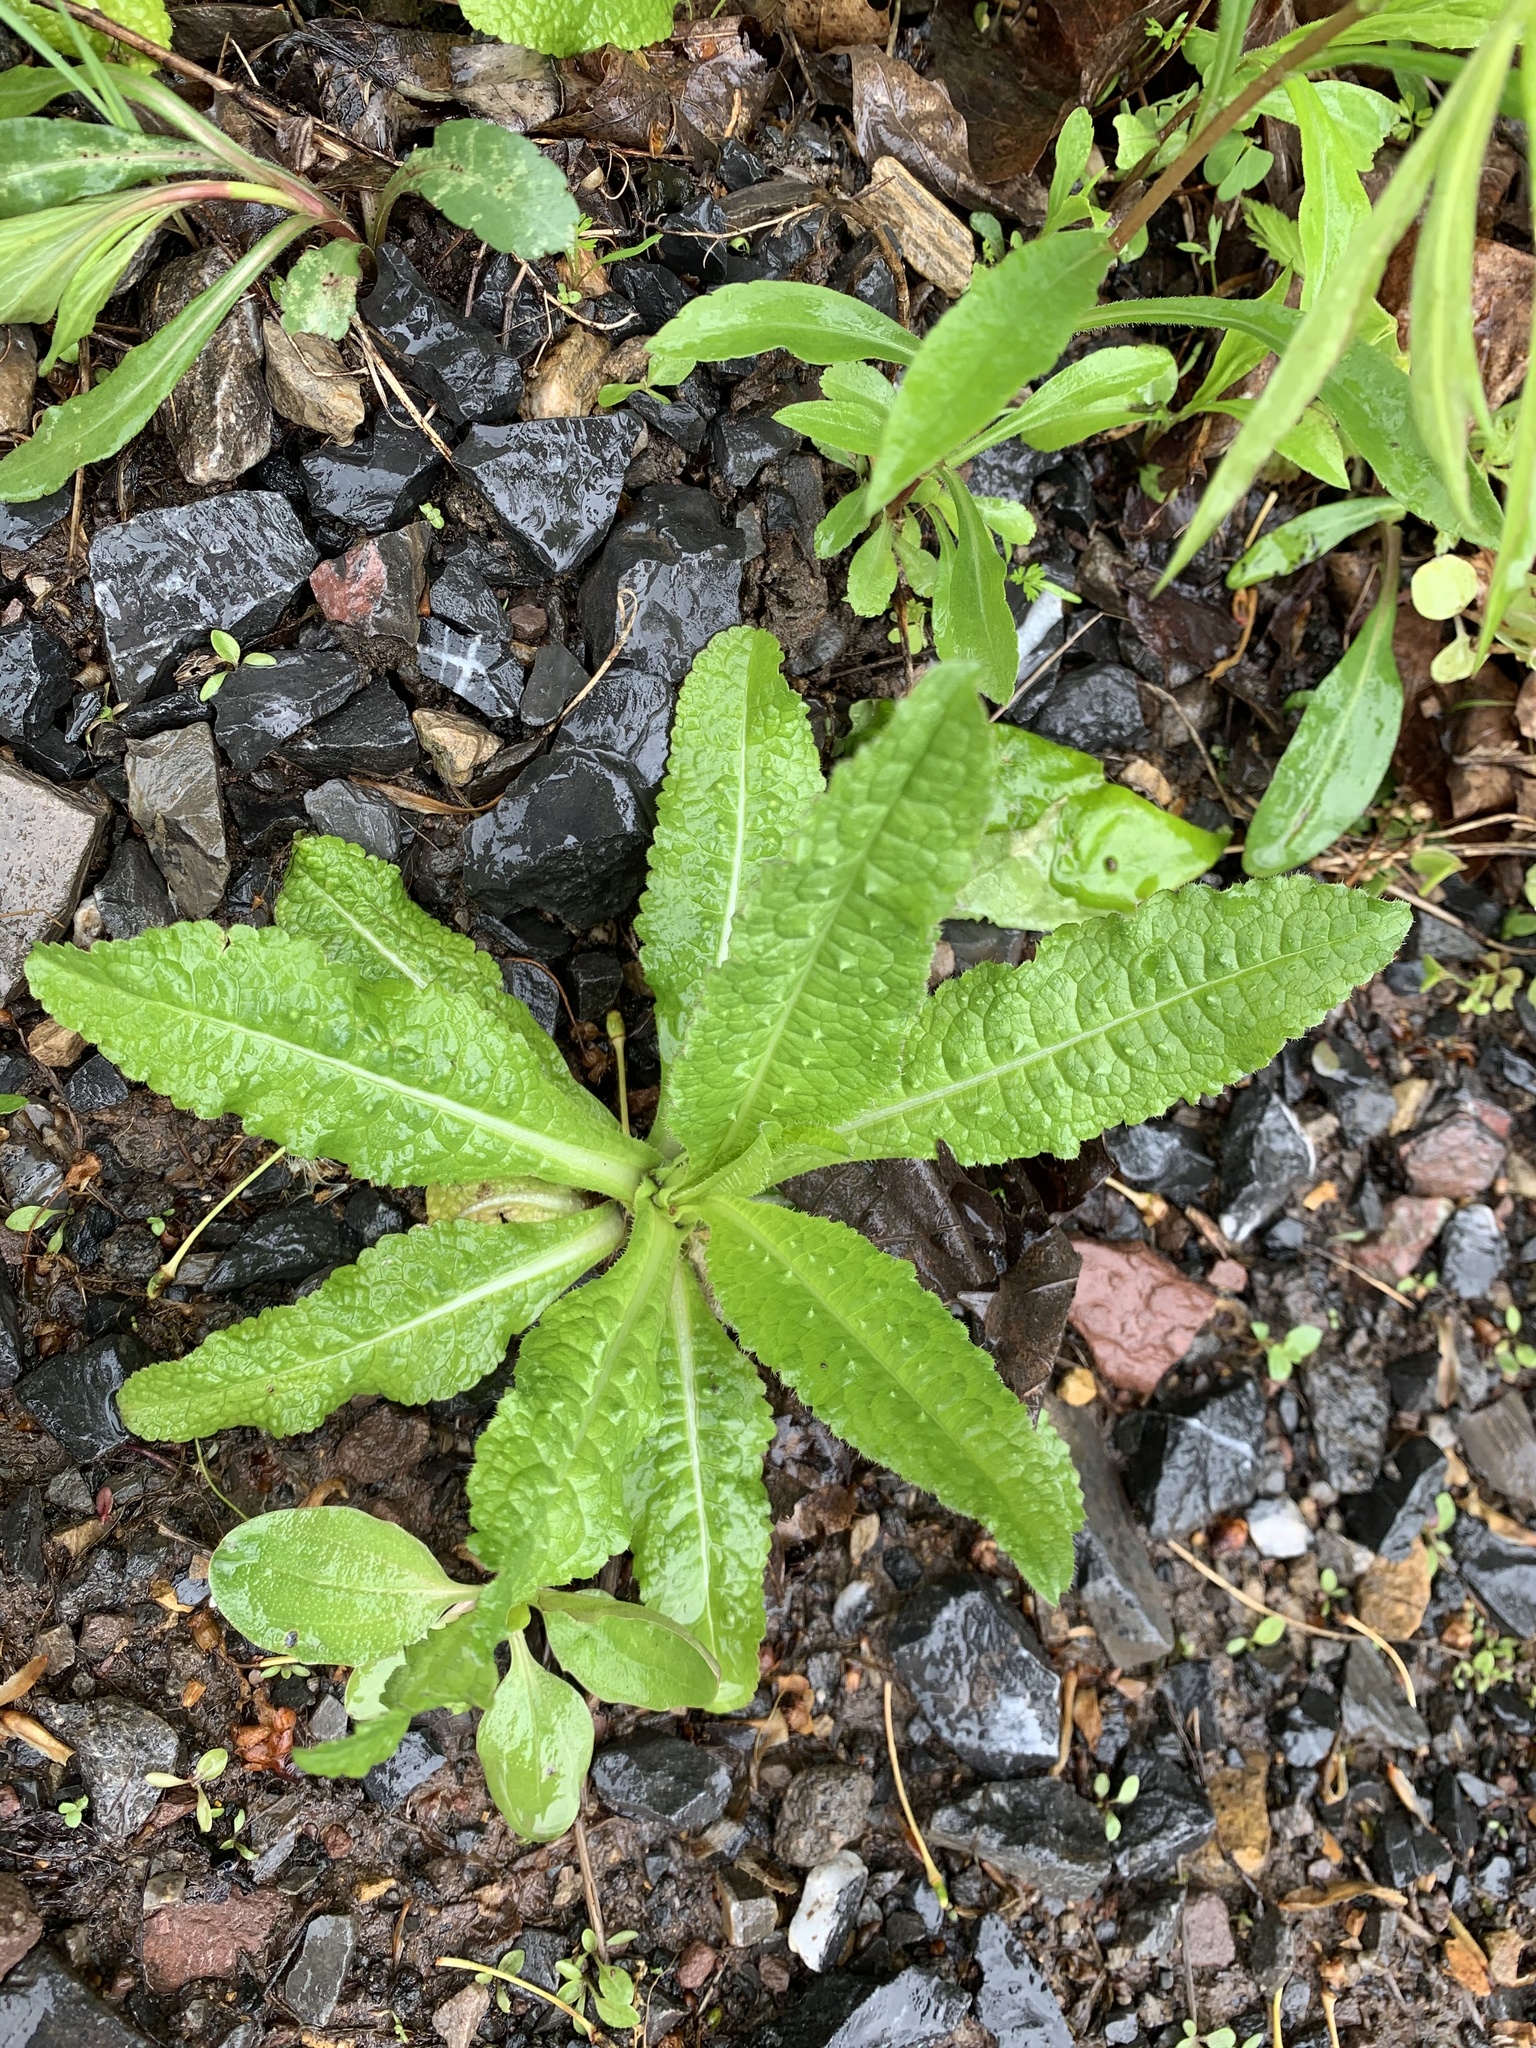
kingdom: Plantae
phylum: Tracheophyta
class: Magnoliopsida
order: Dipsacales
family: Caprifoliaceae
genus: Dipsacus
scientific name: Dipsacus fullonum
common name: Teasel
